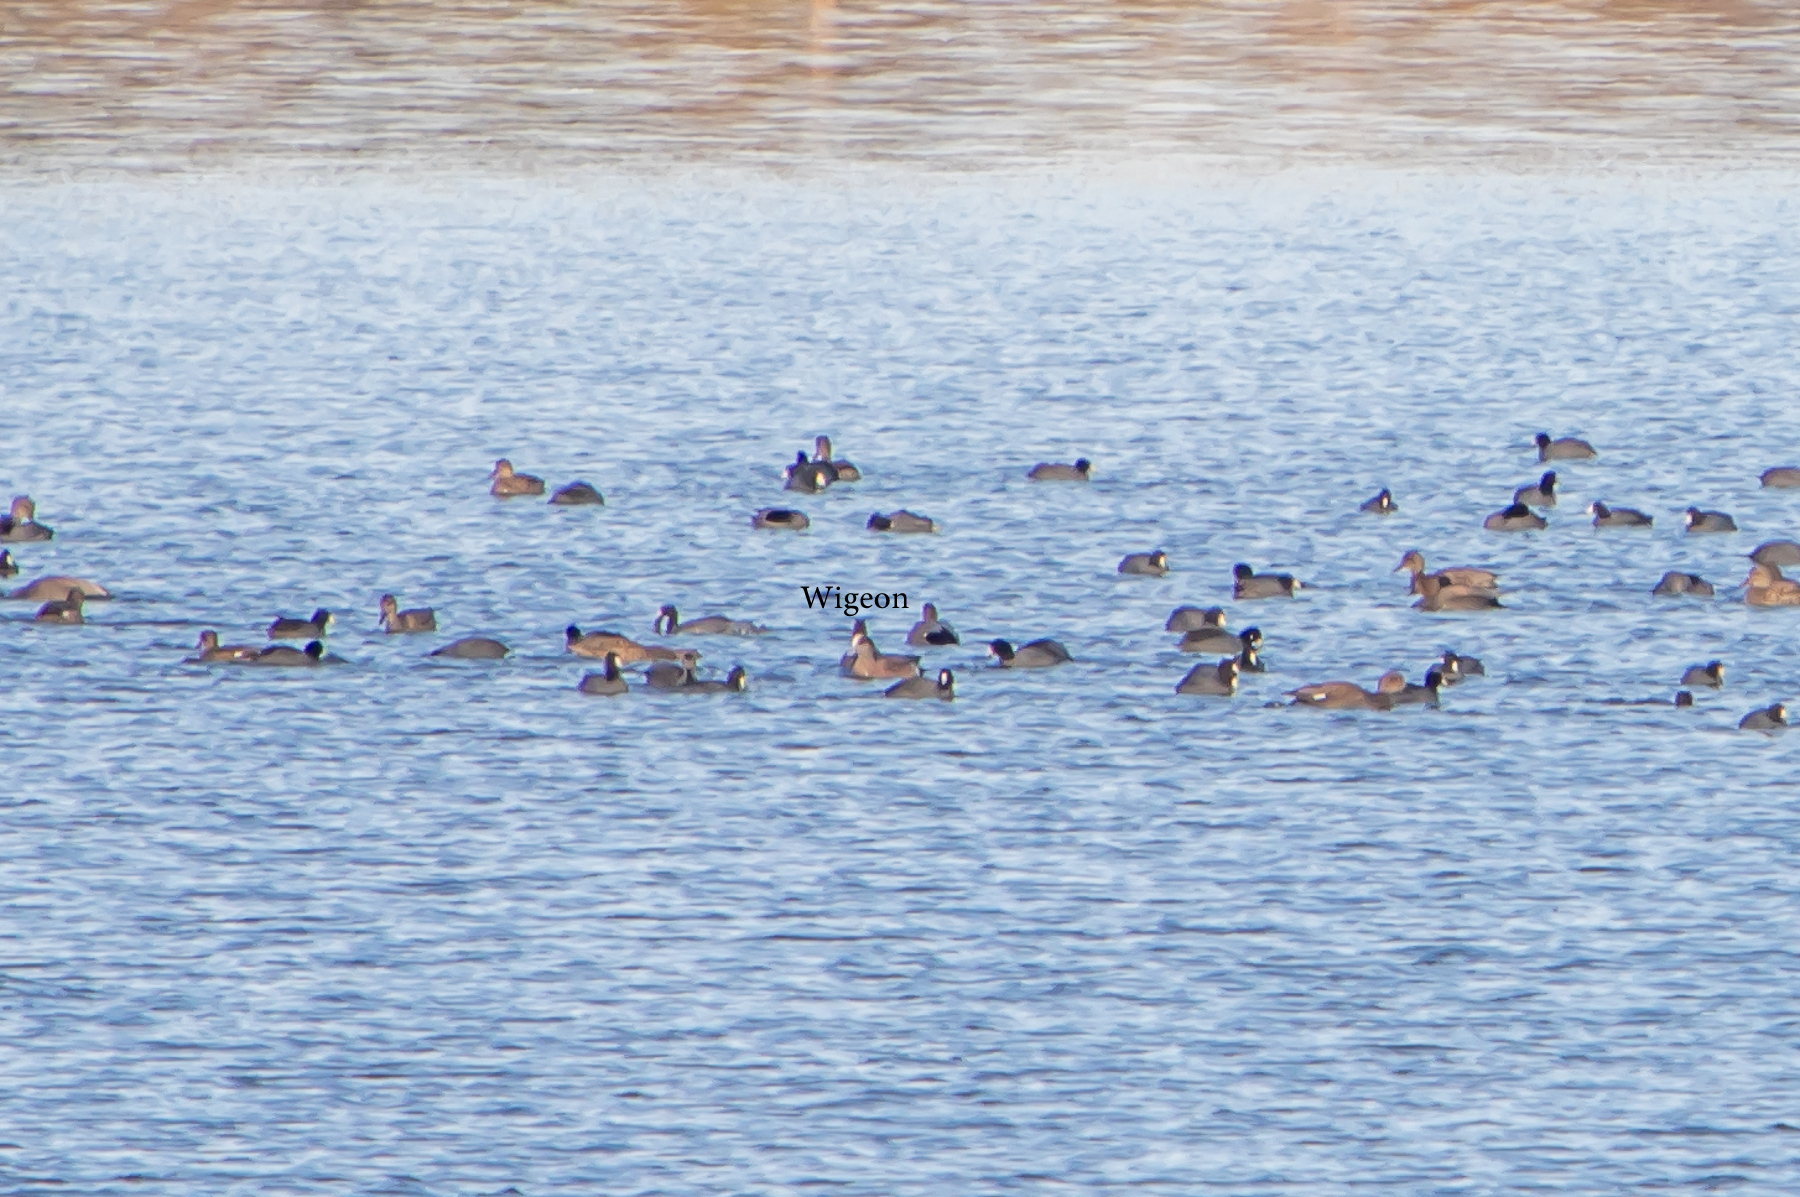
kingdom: Animalia
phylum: Chordata
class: Aves
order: Anseriformes
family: Anatidae
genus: Mareca
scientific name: Mareca americana
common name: American wigeon
